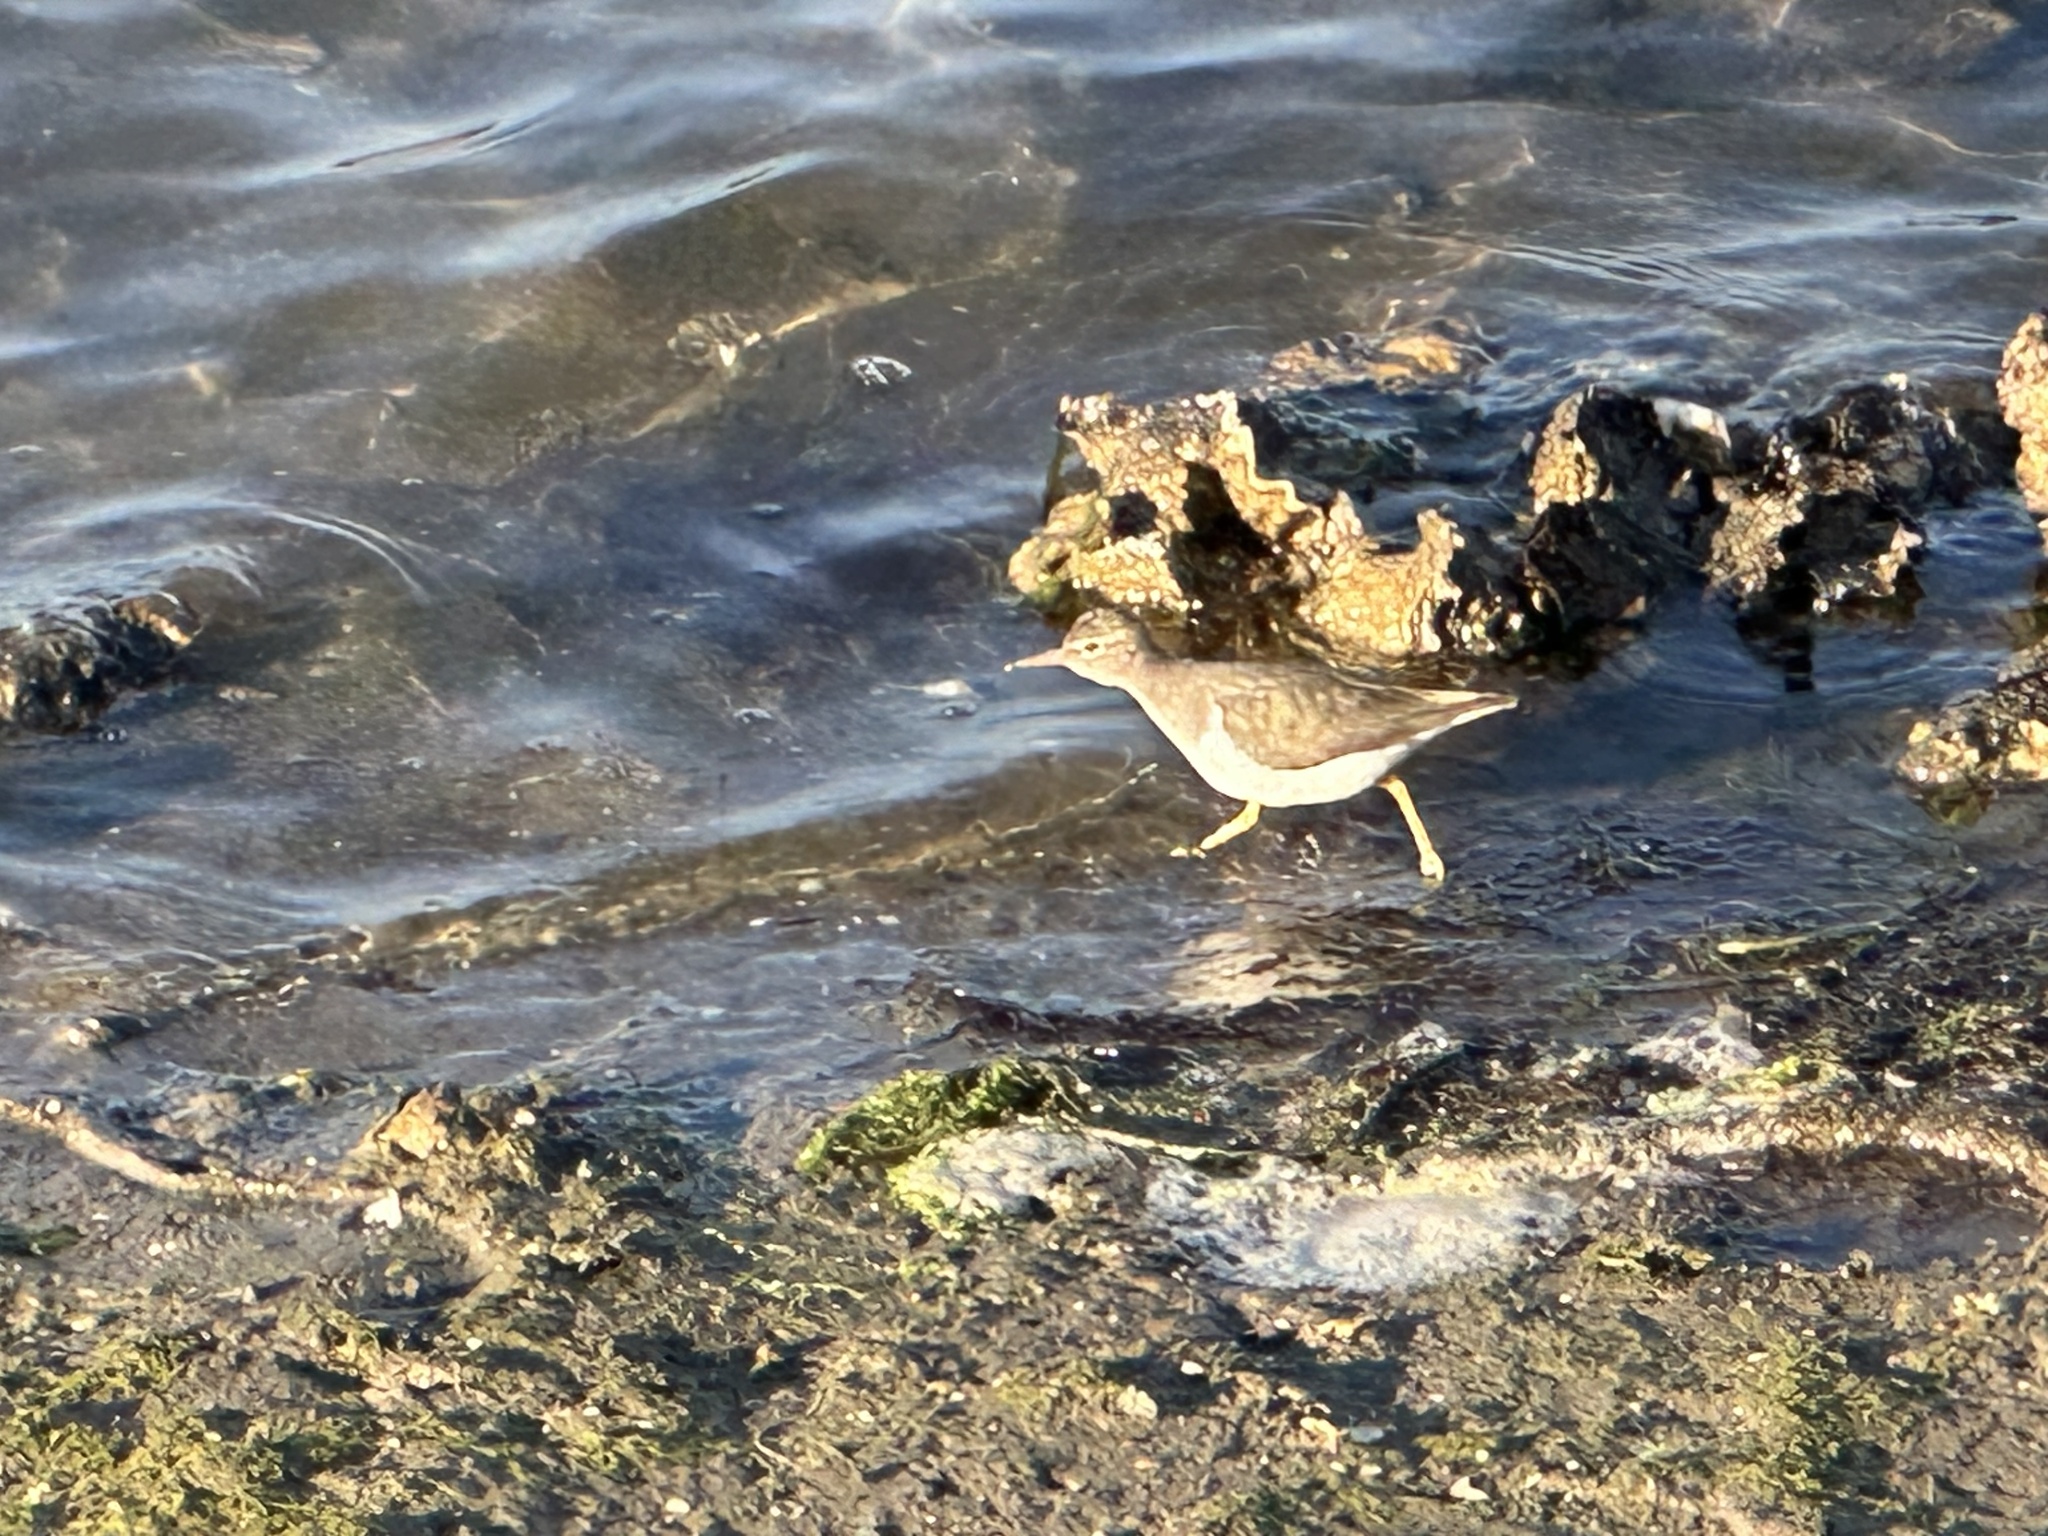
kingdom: Animalia
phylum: Chordata
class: Aves
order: Charadriiformes
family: Scolopacidae
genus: Actitis
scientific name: Actitis macularius
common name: Spotted sandpiper
